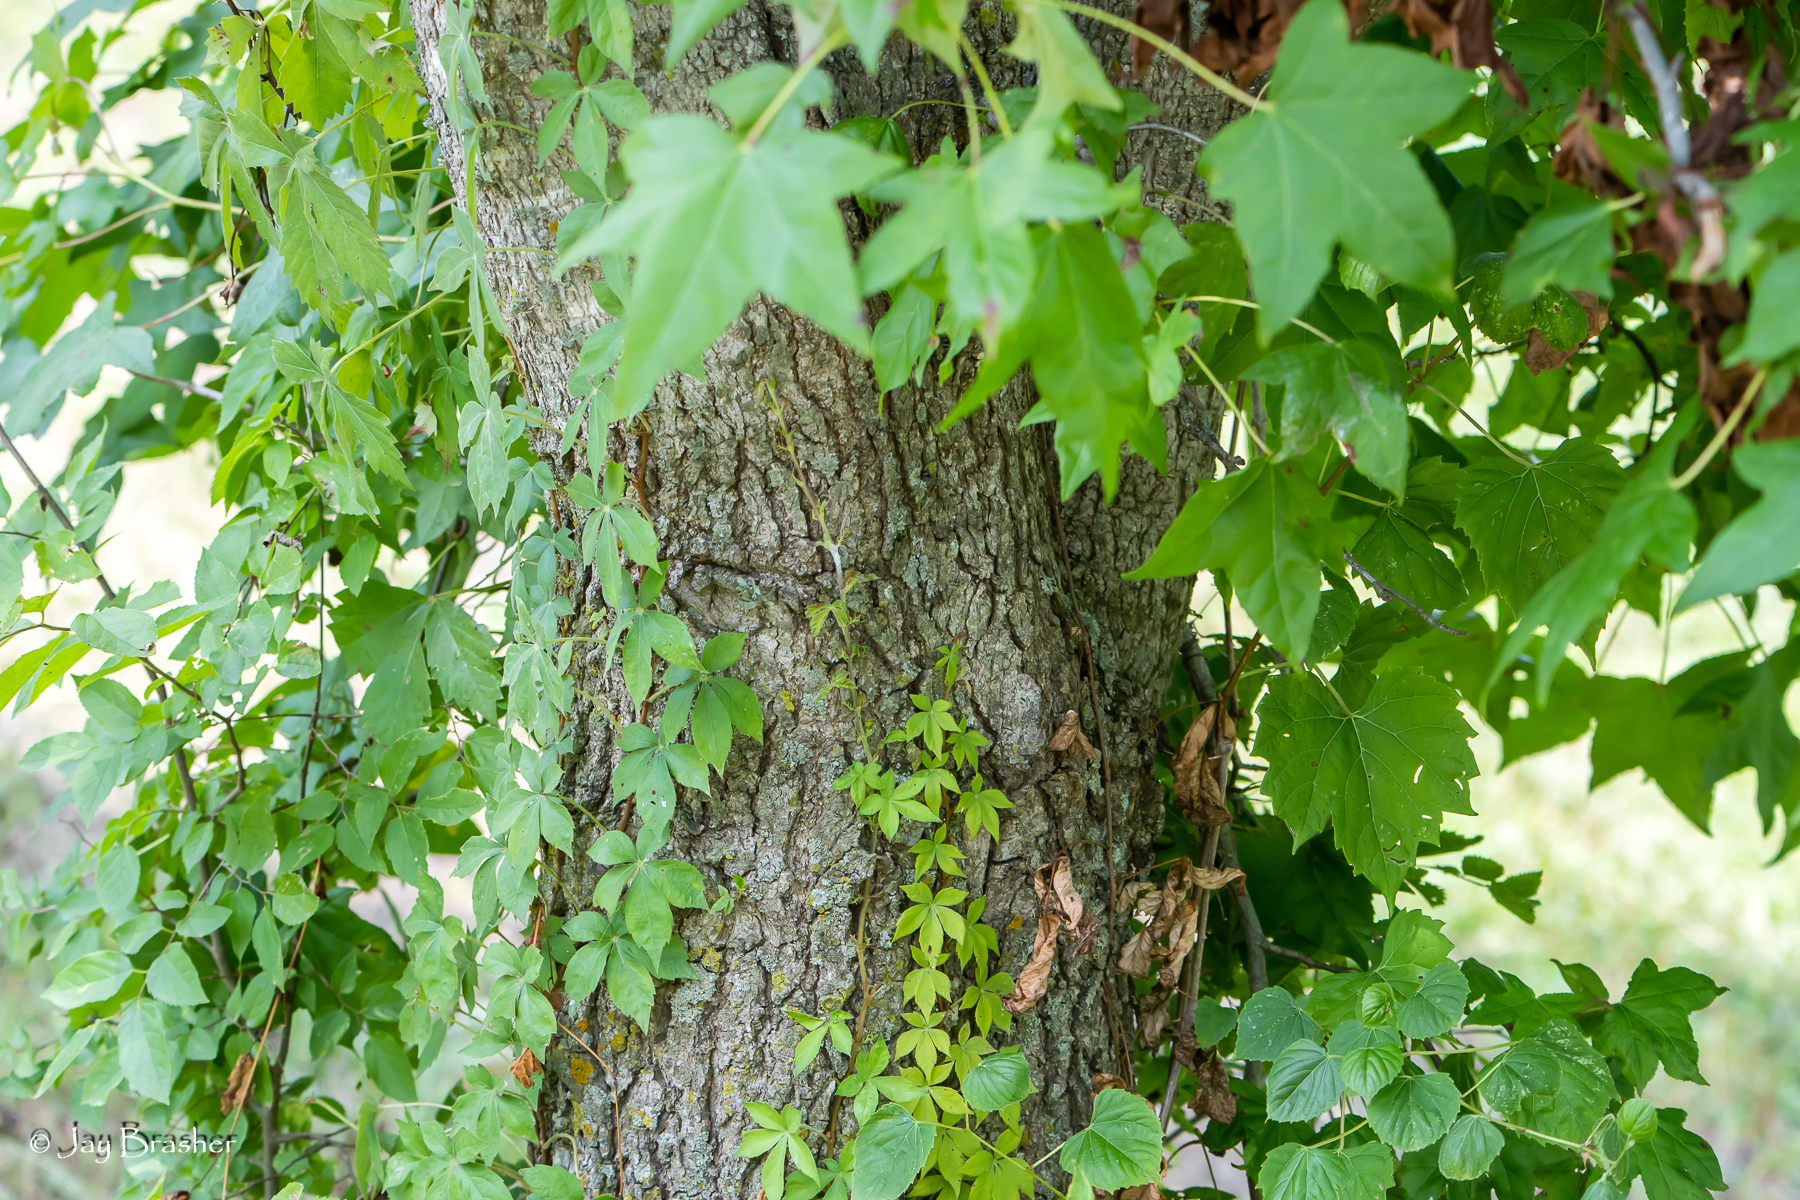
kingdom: Plantae
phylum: Tracheophyta
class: Magnoliopsida
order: Saxifragales
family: Altingiaceae
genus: Liquidambar
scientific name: Liquidambar styraciflua
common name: Sweet gum
